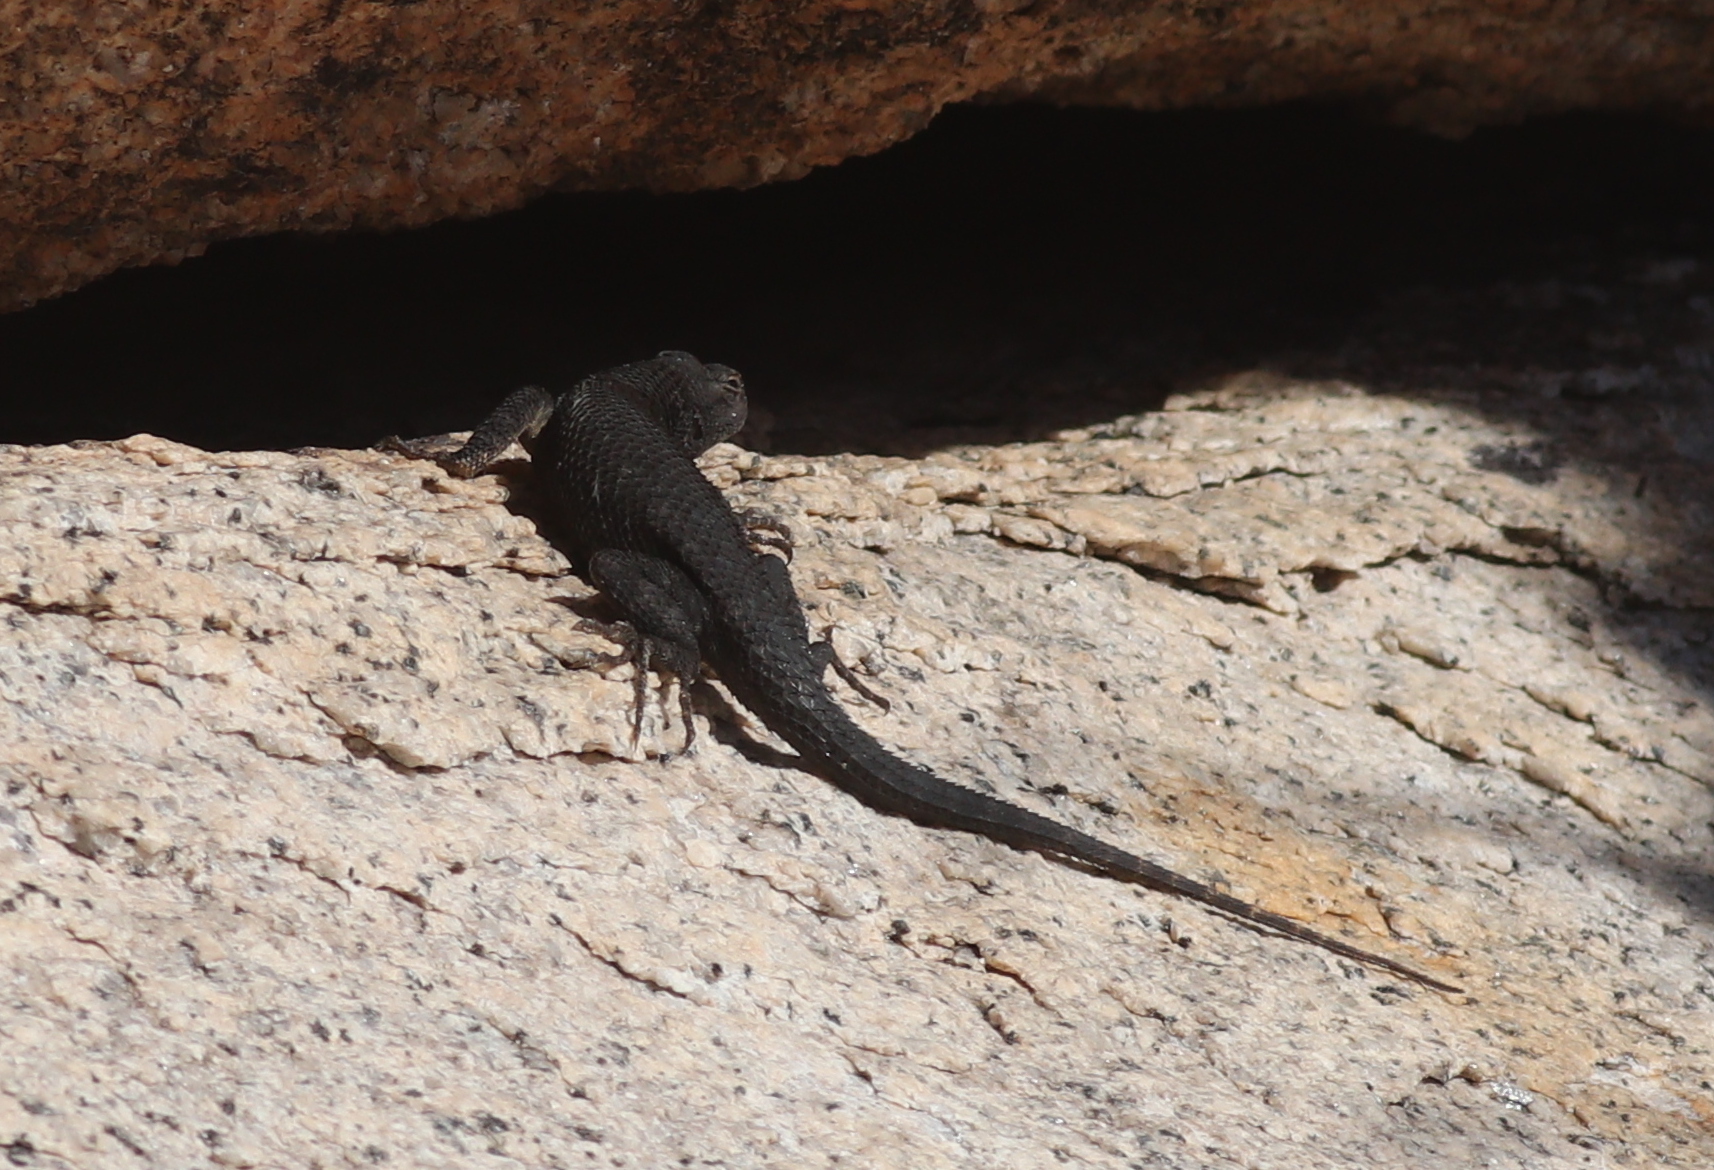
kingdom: Animalia
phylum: Chordata
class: Squamata
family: Phrynosomatidae
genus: Sceloporus
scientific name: Sceloporus occidentalis
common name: Western fence lizard
